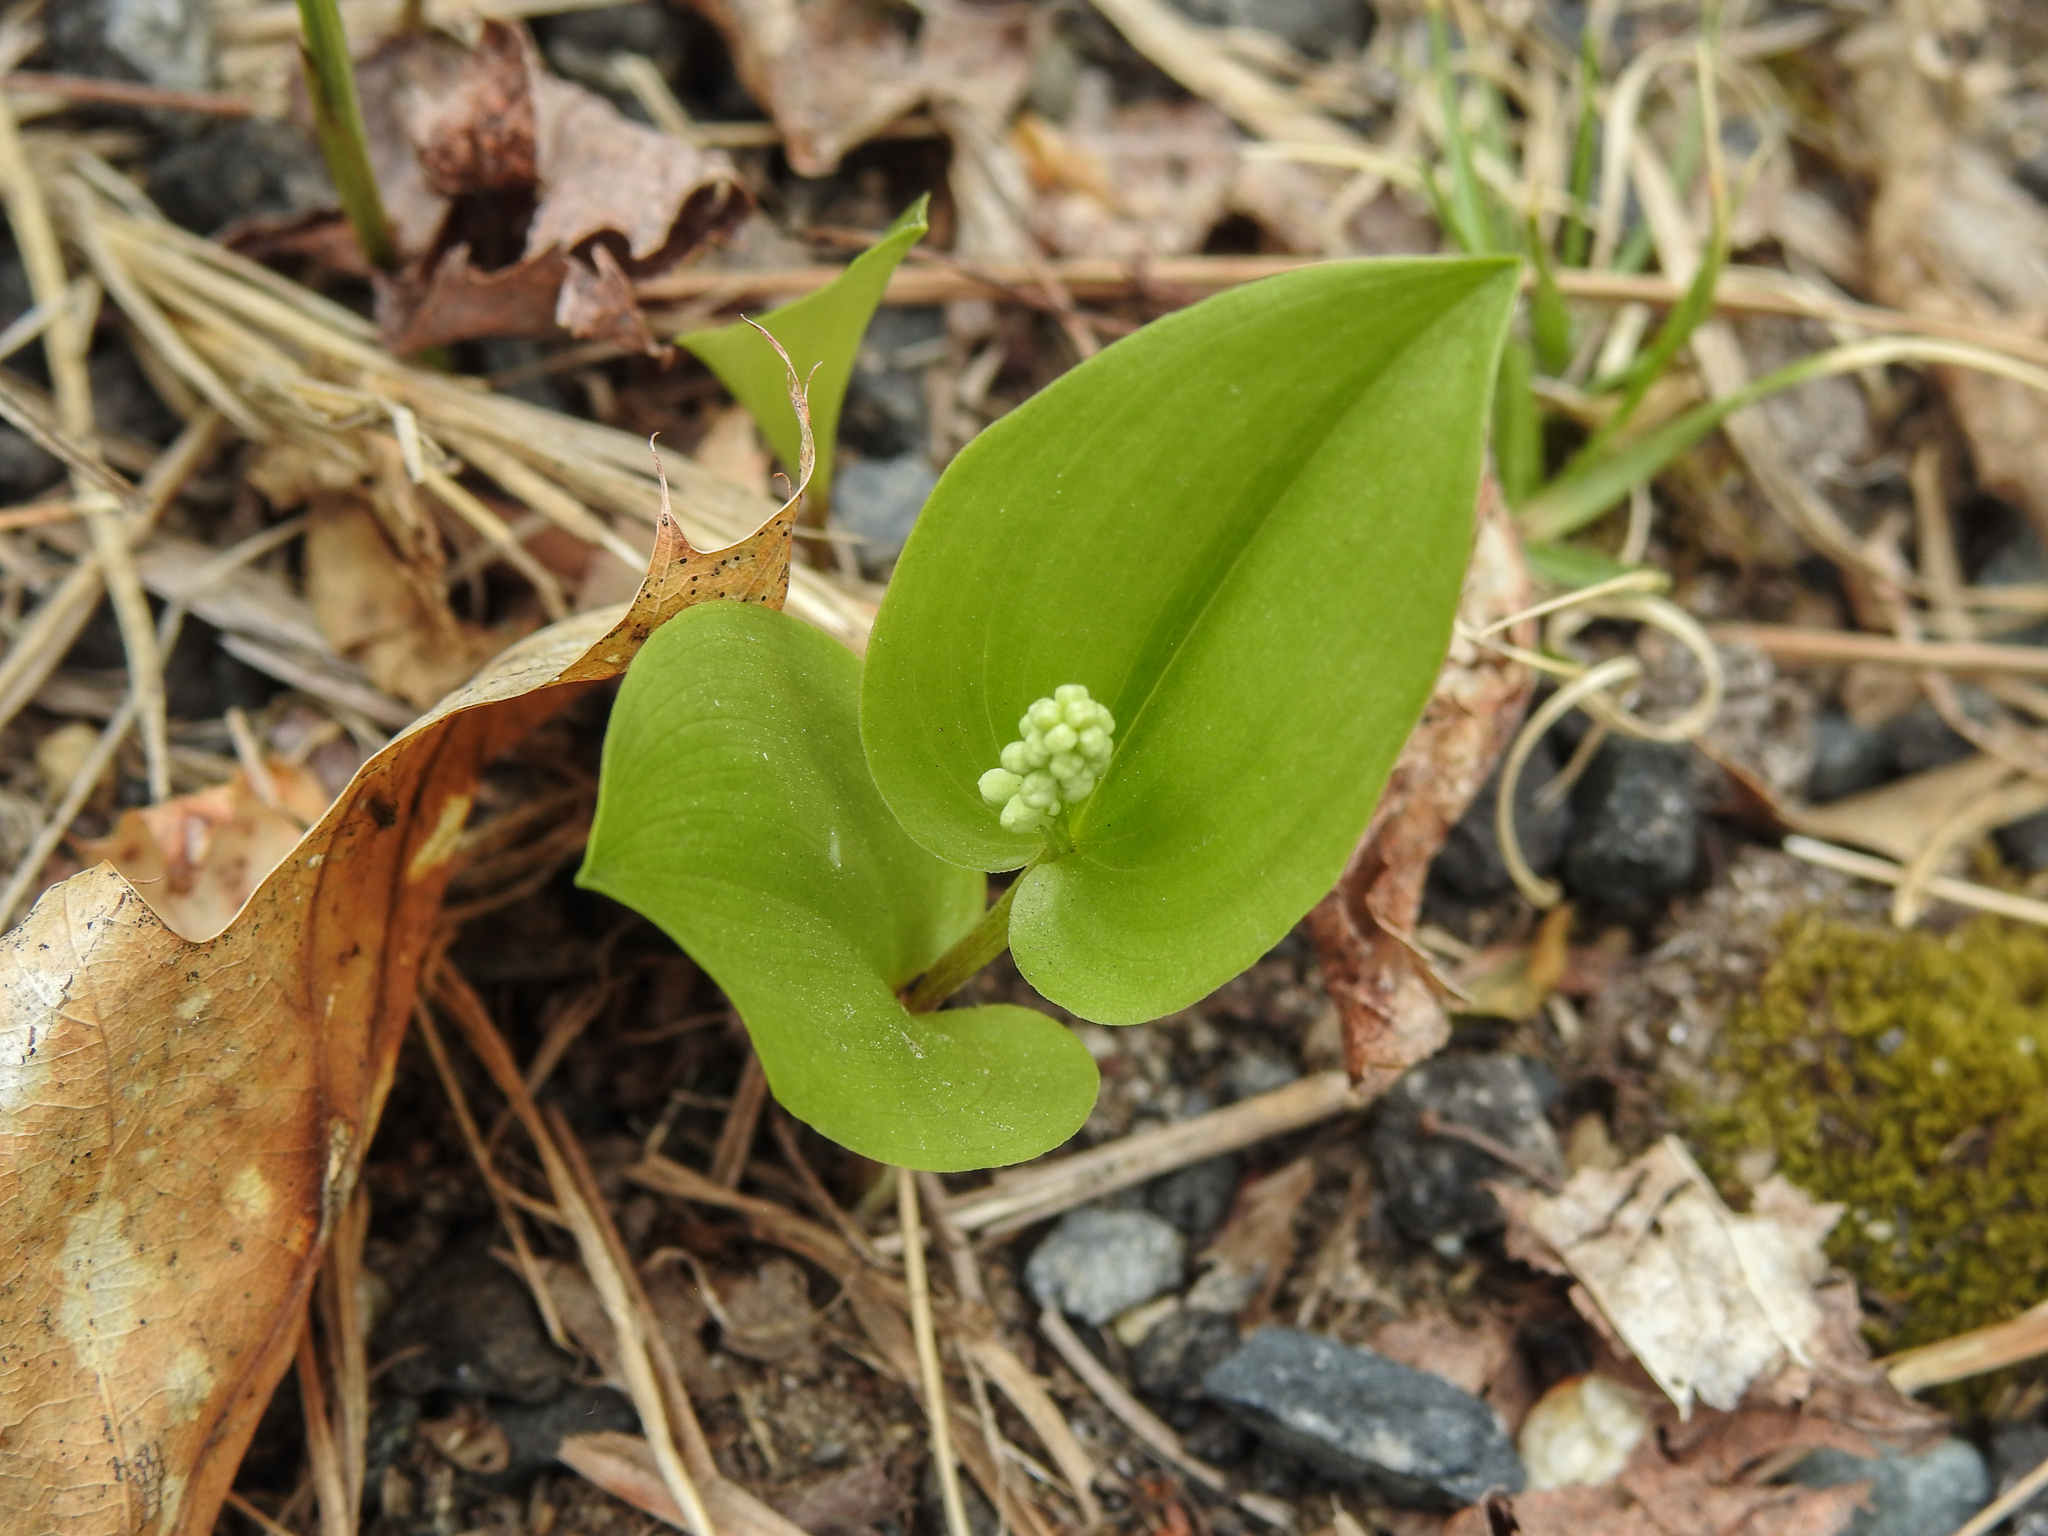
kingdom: Plantae
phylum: Tracheophyta
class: Liliopsida
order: Asparagales
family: Asparagaceae
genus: Maianthemum
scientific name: Maianthemum canadense
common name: False lily-of-the-valley
